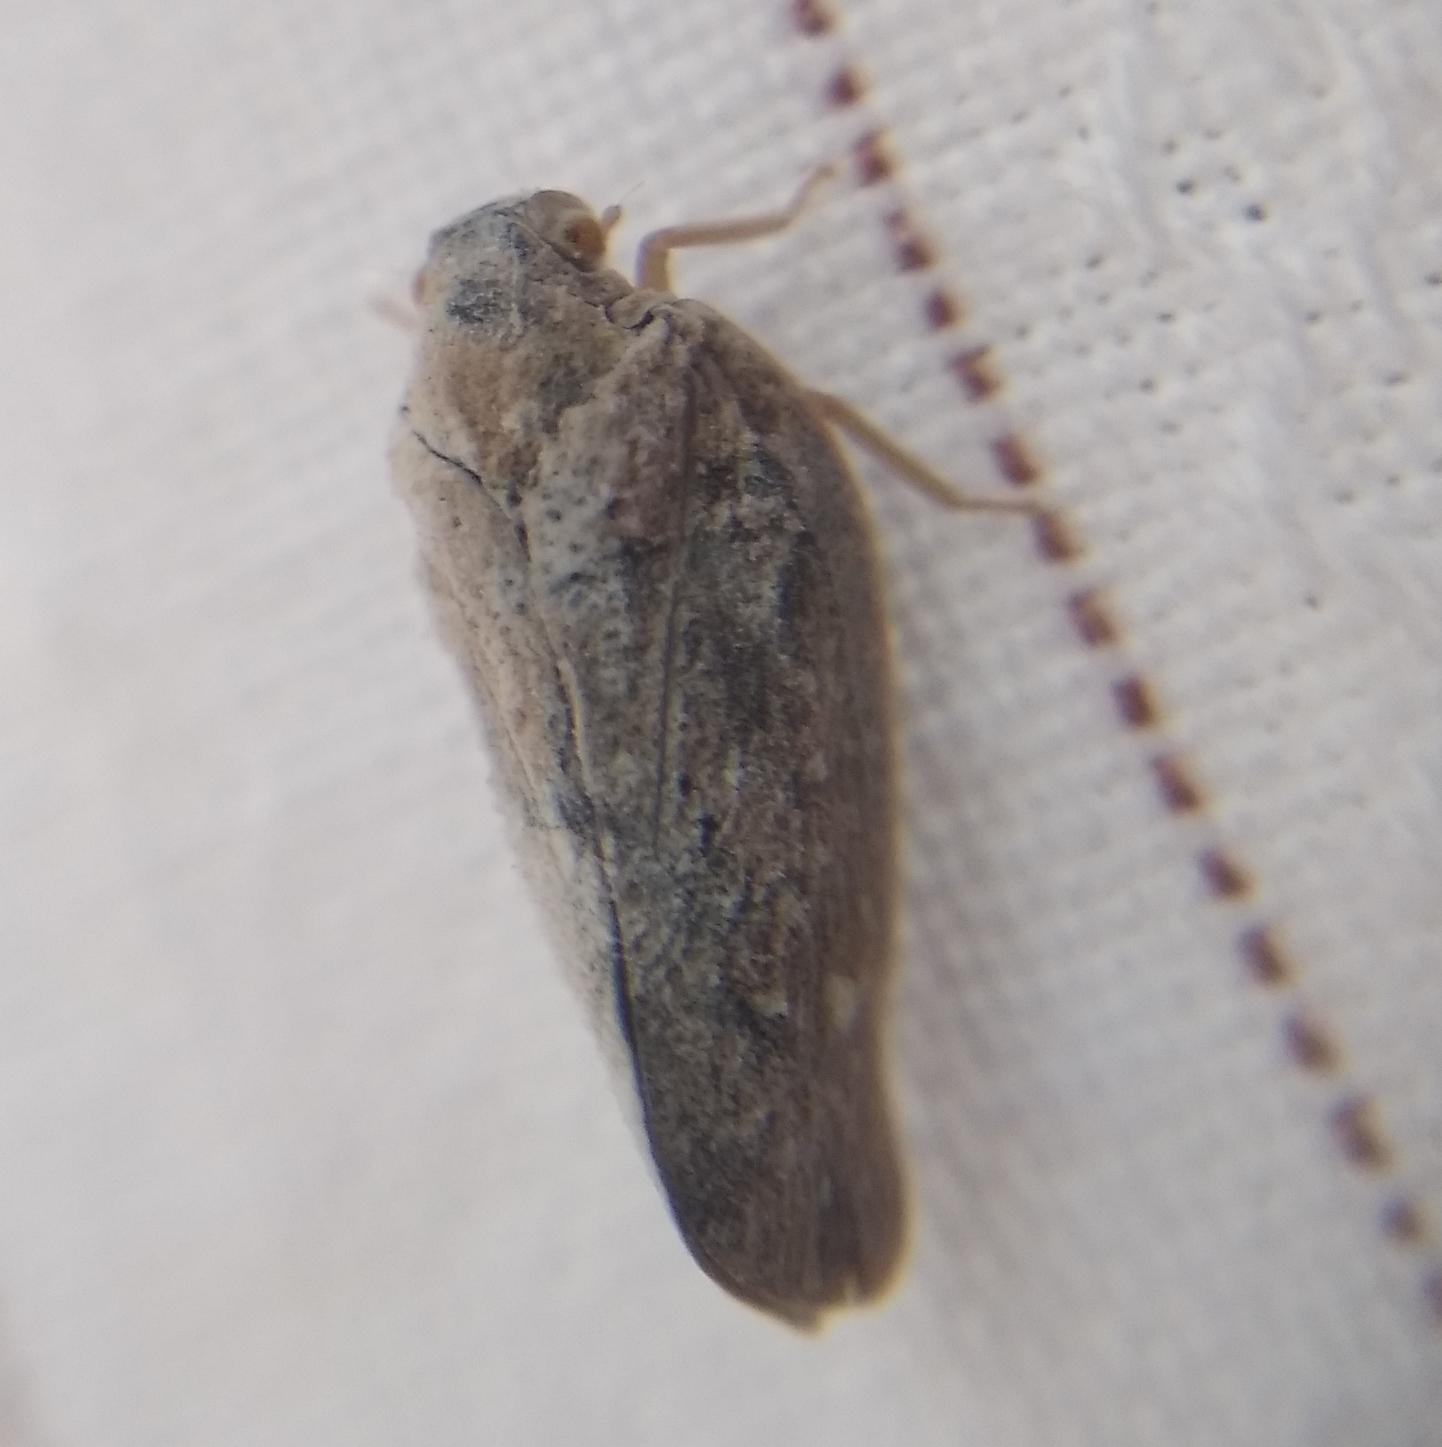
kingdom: Animalia
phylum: Arthropoda
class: Insecta
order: Hemiptera
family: Flatidae
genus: Metcalfa
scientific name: Metcalfa pruinosa
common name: Citrus flatid planthopper
